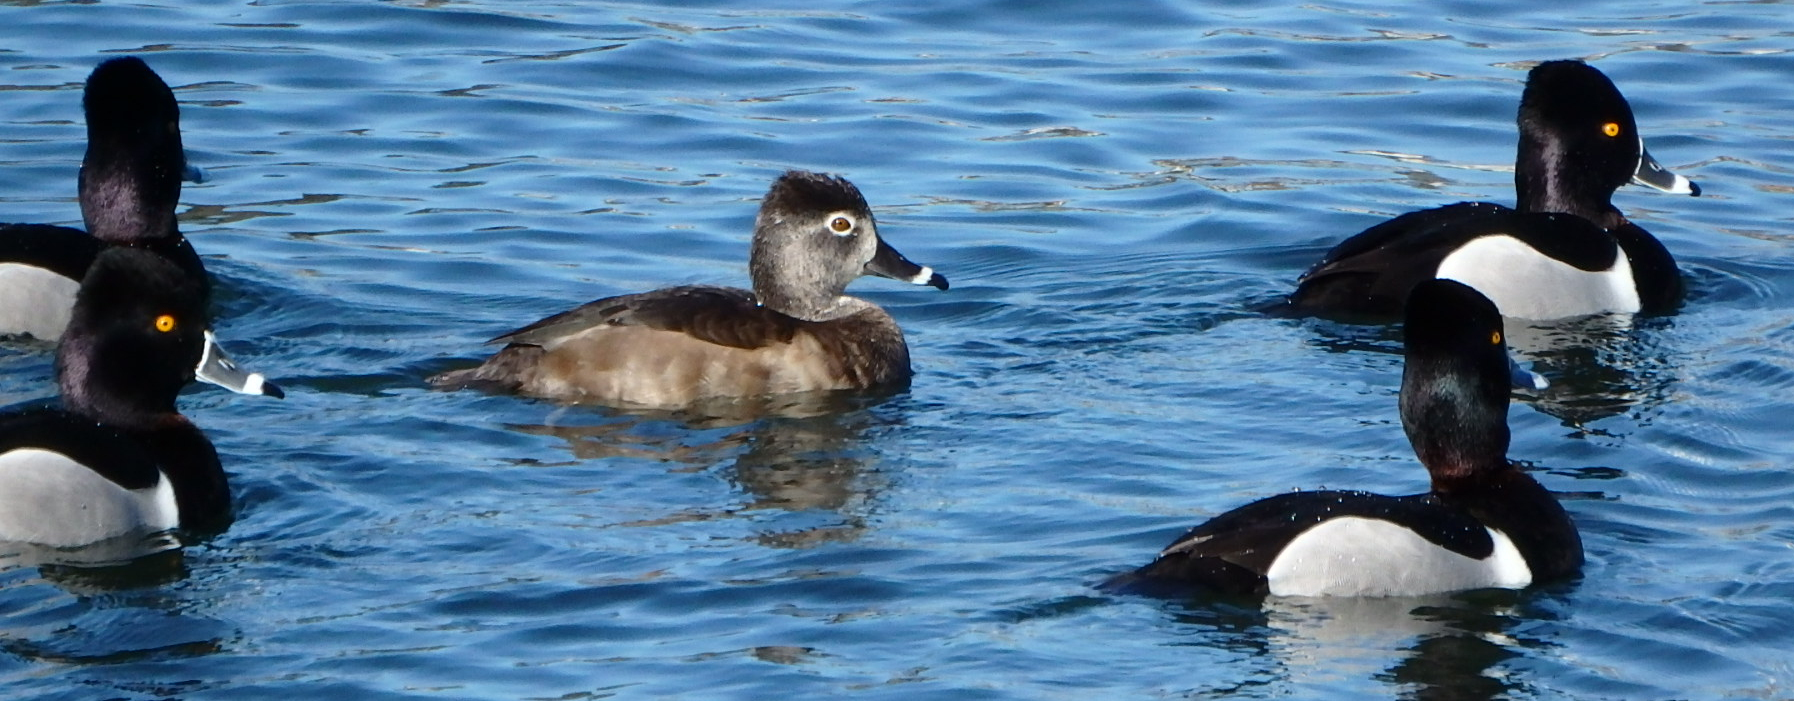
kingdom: Animalia
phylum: Chordata
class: Aves
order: Anseriformes
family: Anatidae
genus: Aythya
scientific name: Aythya collaris
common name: Ring-necked duck
